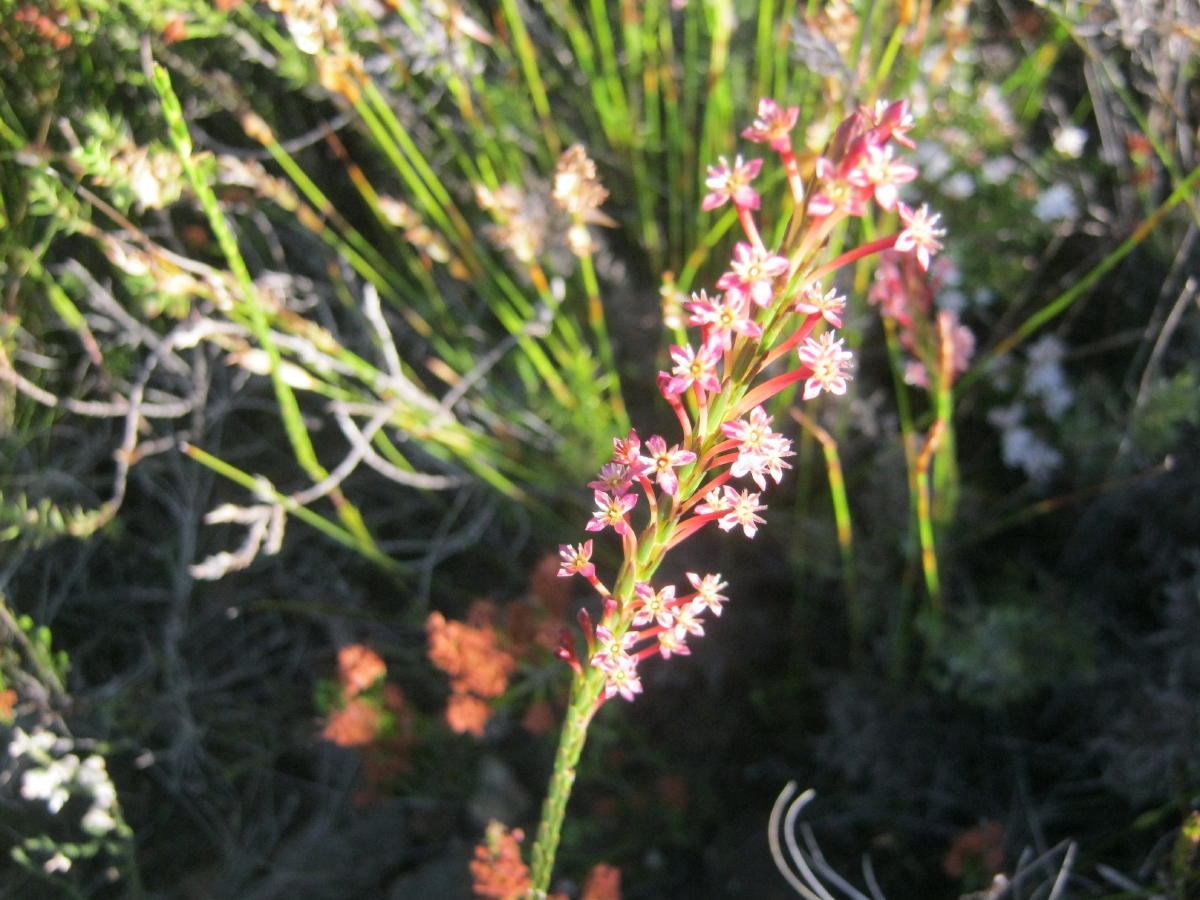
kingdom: Plantae
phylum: Tracheophyta
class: Magnoliopsida
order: Malvales
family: Thymelaeaceae
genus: Struthiola
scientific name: Struthiola macowanii
